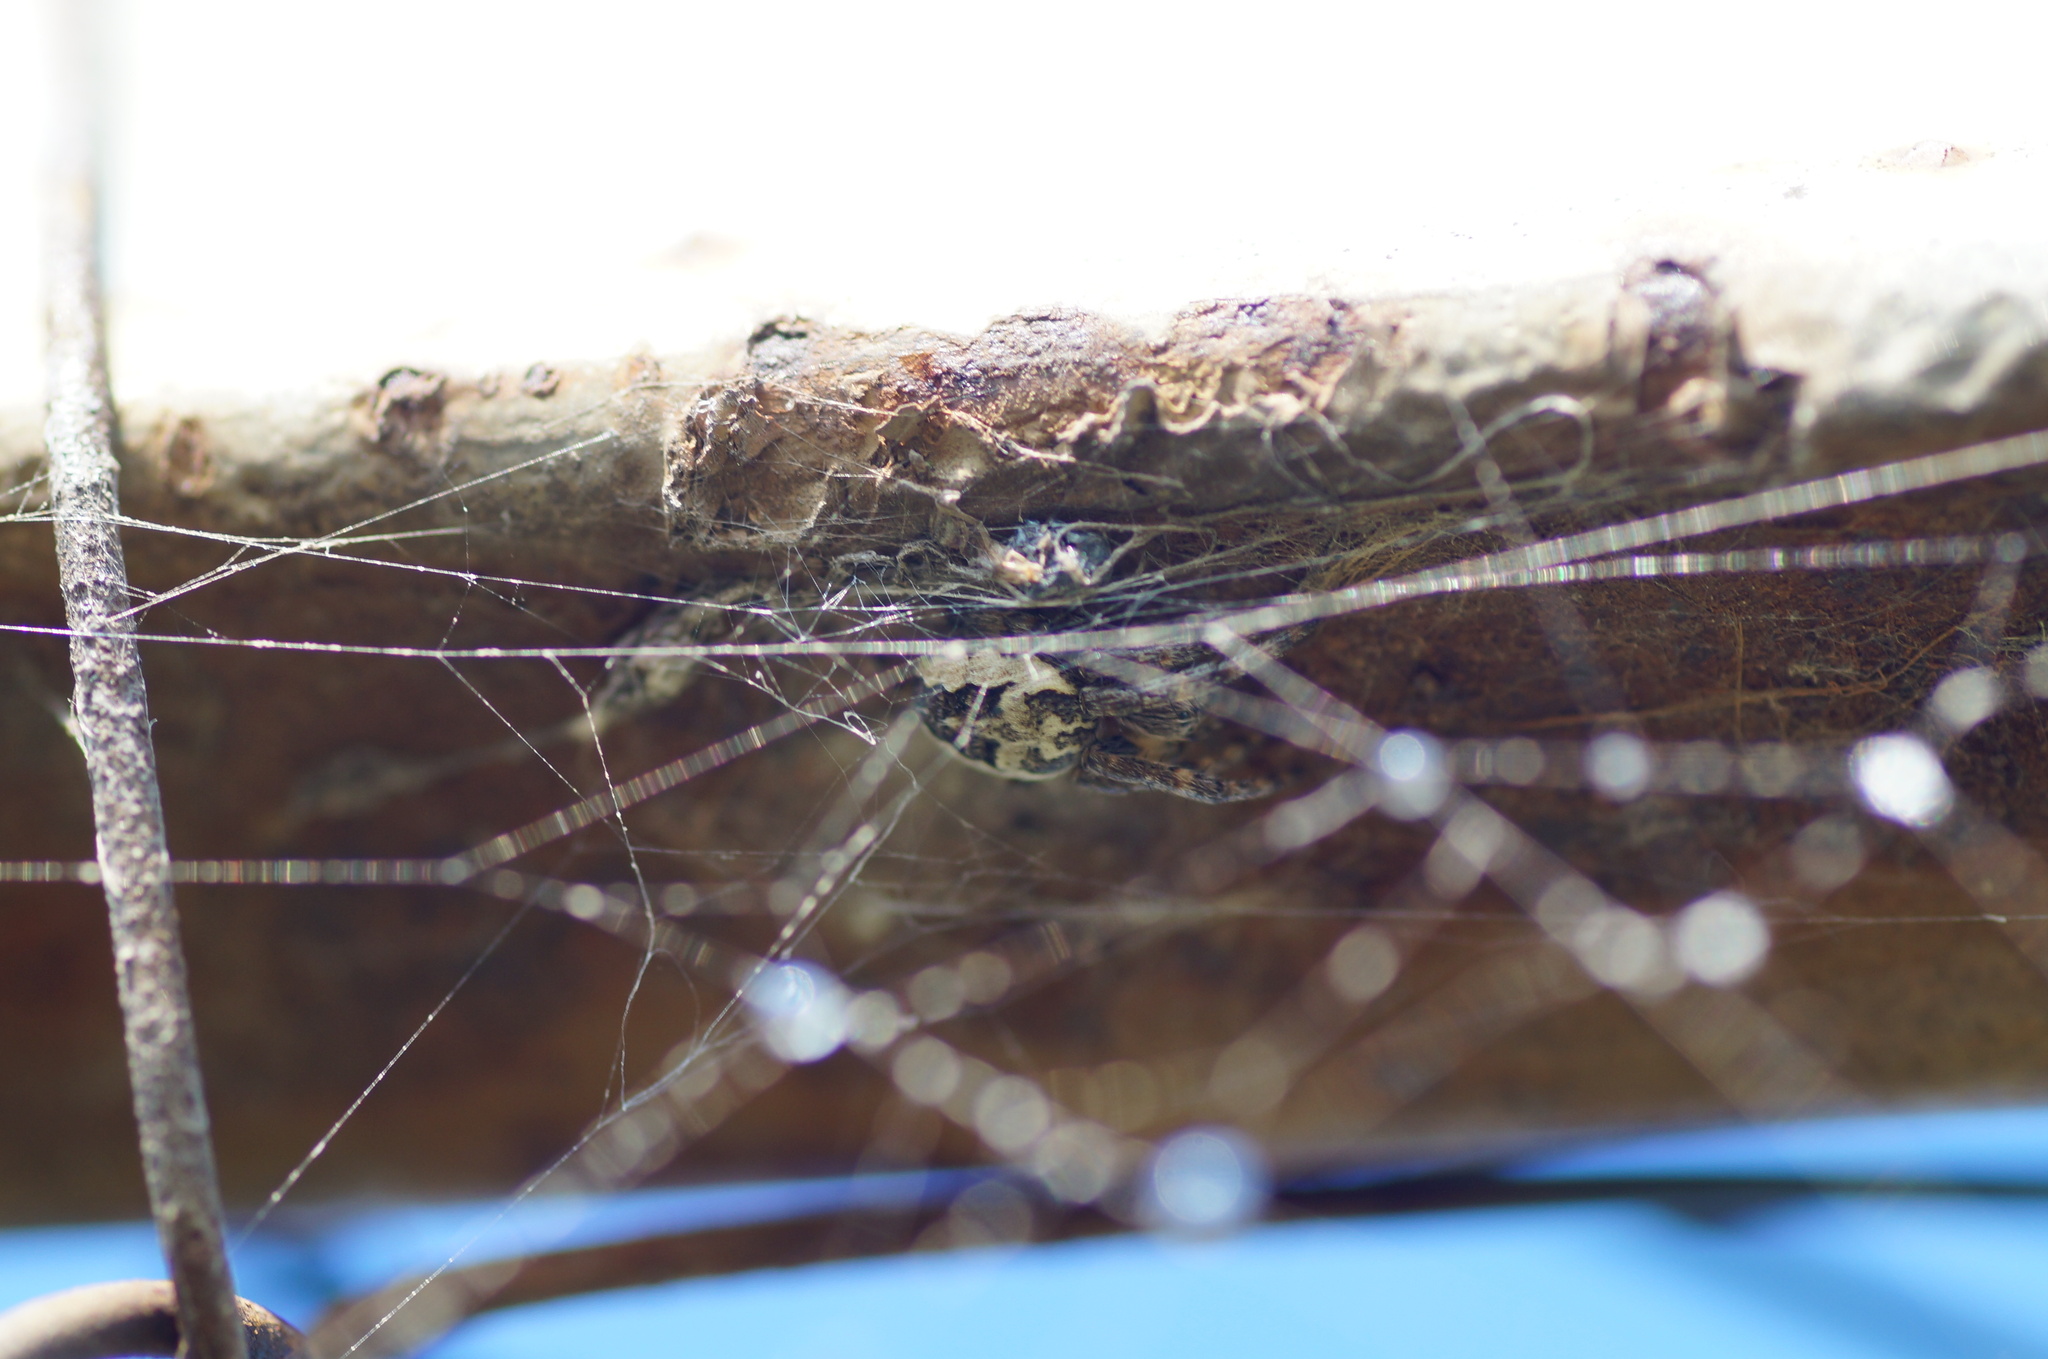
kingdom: Animalia
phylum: Arthropoda
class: Arachnida
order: Araneae
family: Araneidae
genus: Larinioides
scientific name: Larinioides
